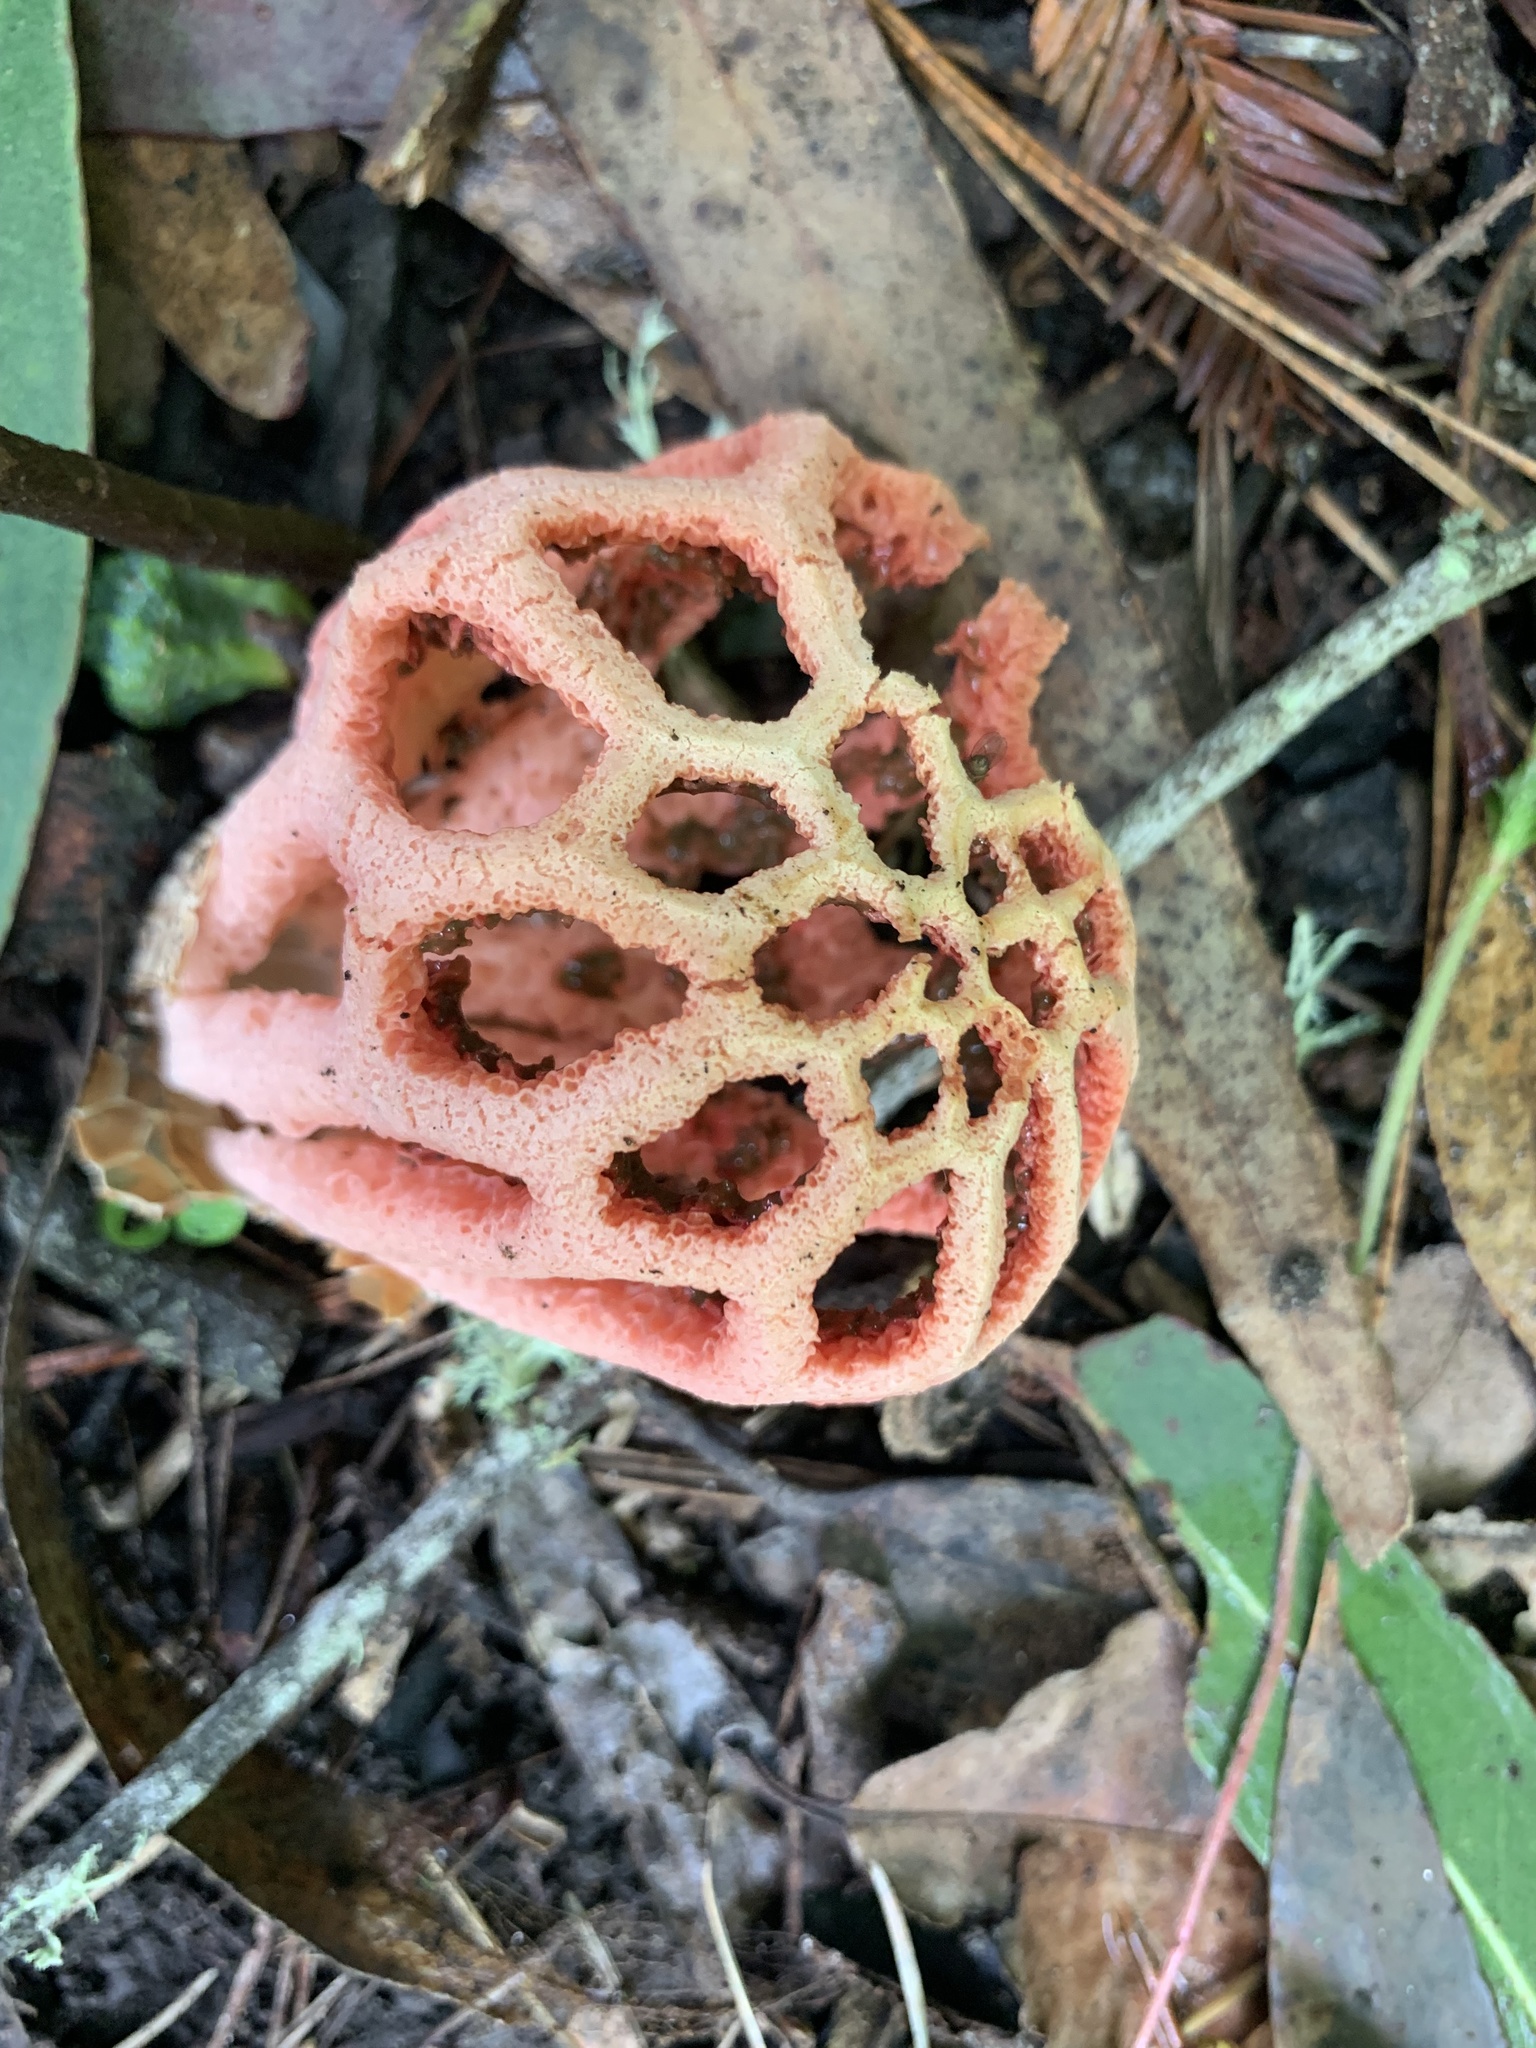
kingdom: Fungi
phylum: Basidiomycota
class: Agaricomycetes
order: Phallales
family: Phallaceae
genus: Clathrus
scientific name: Clathrus ruber
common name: Red cage
